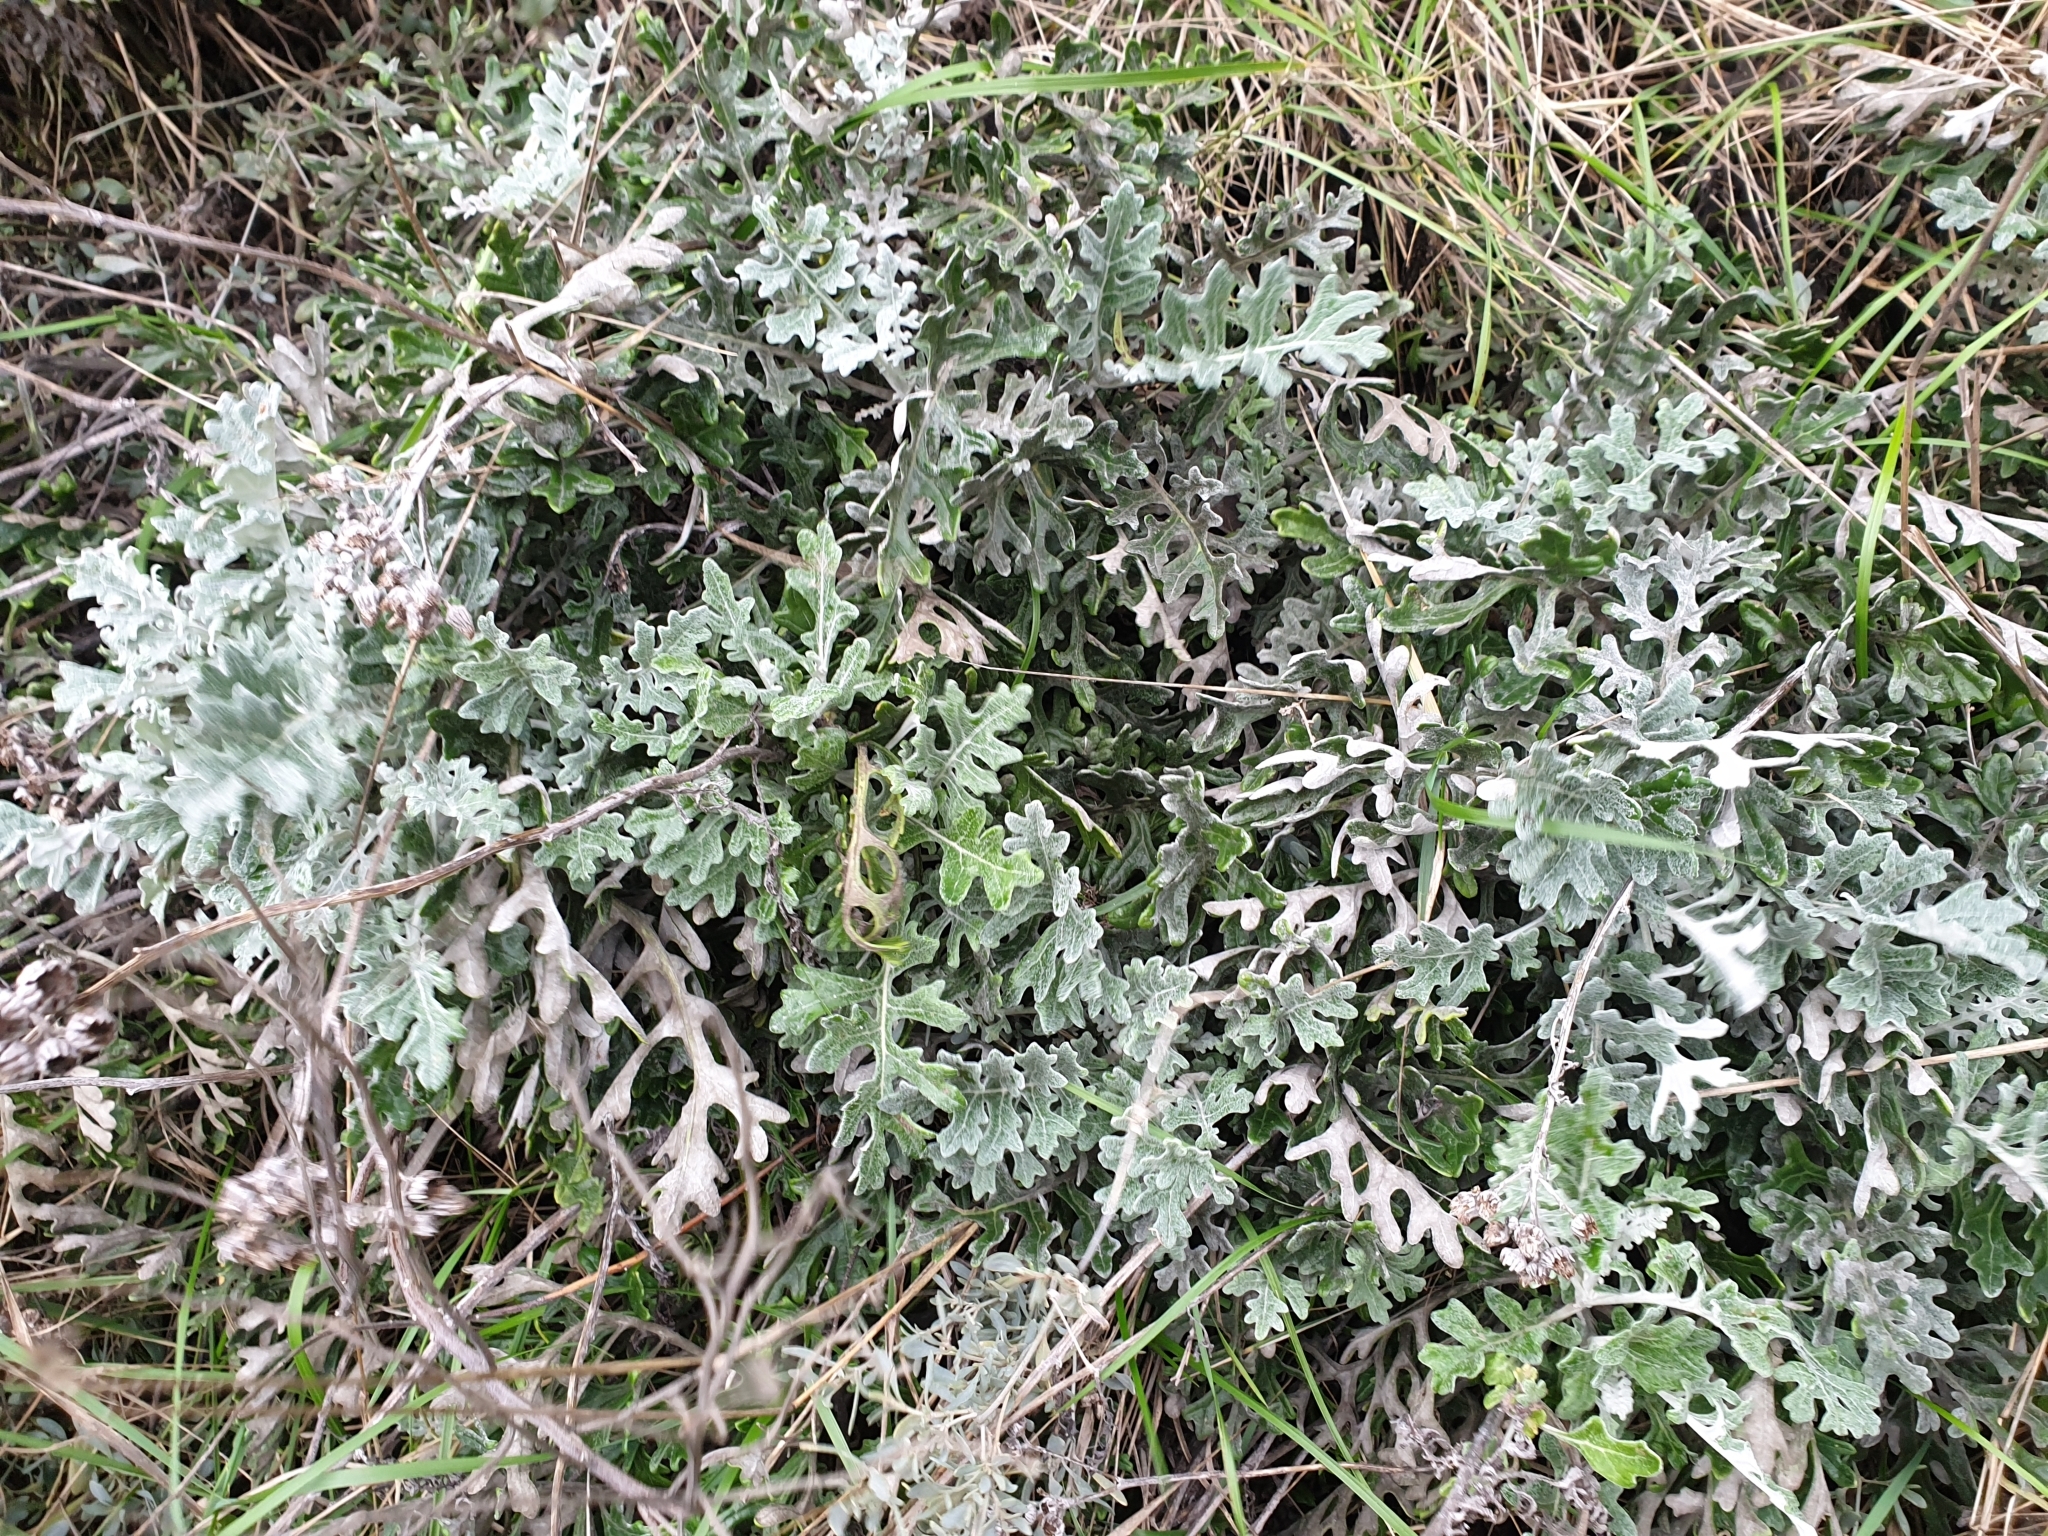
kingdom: Plantae
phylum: Tracheophyta
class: Magnoliopsida
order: Asterales
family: Asteraceae
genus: Jacobaea
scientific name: Jacobaea maritima
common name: Silver ragwort
